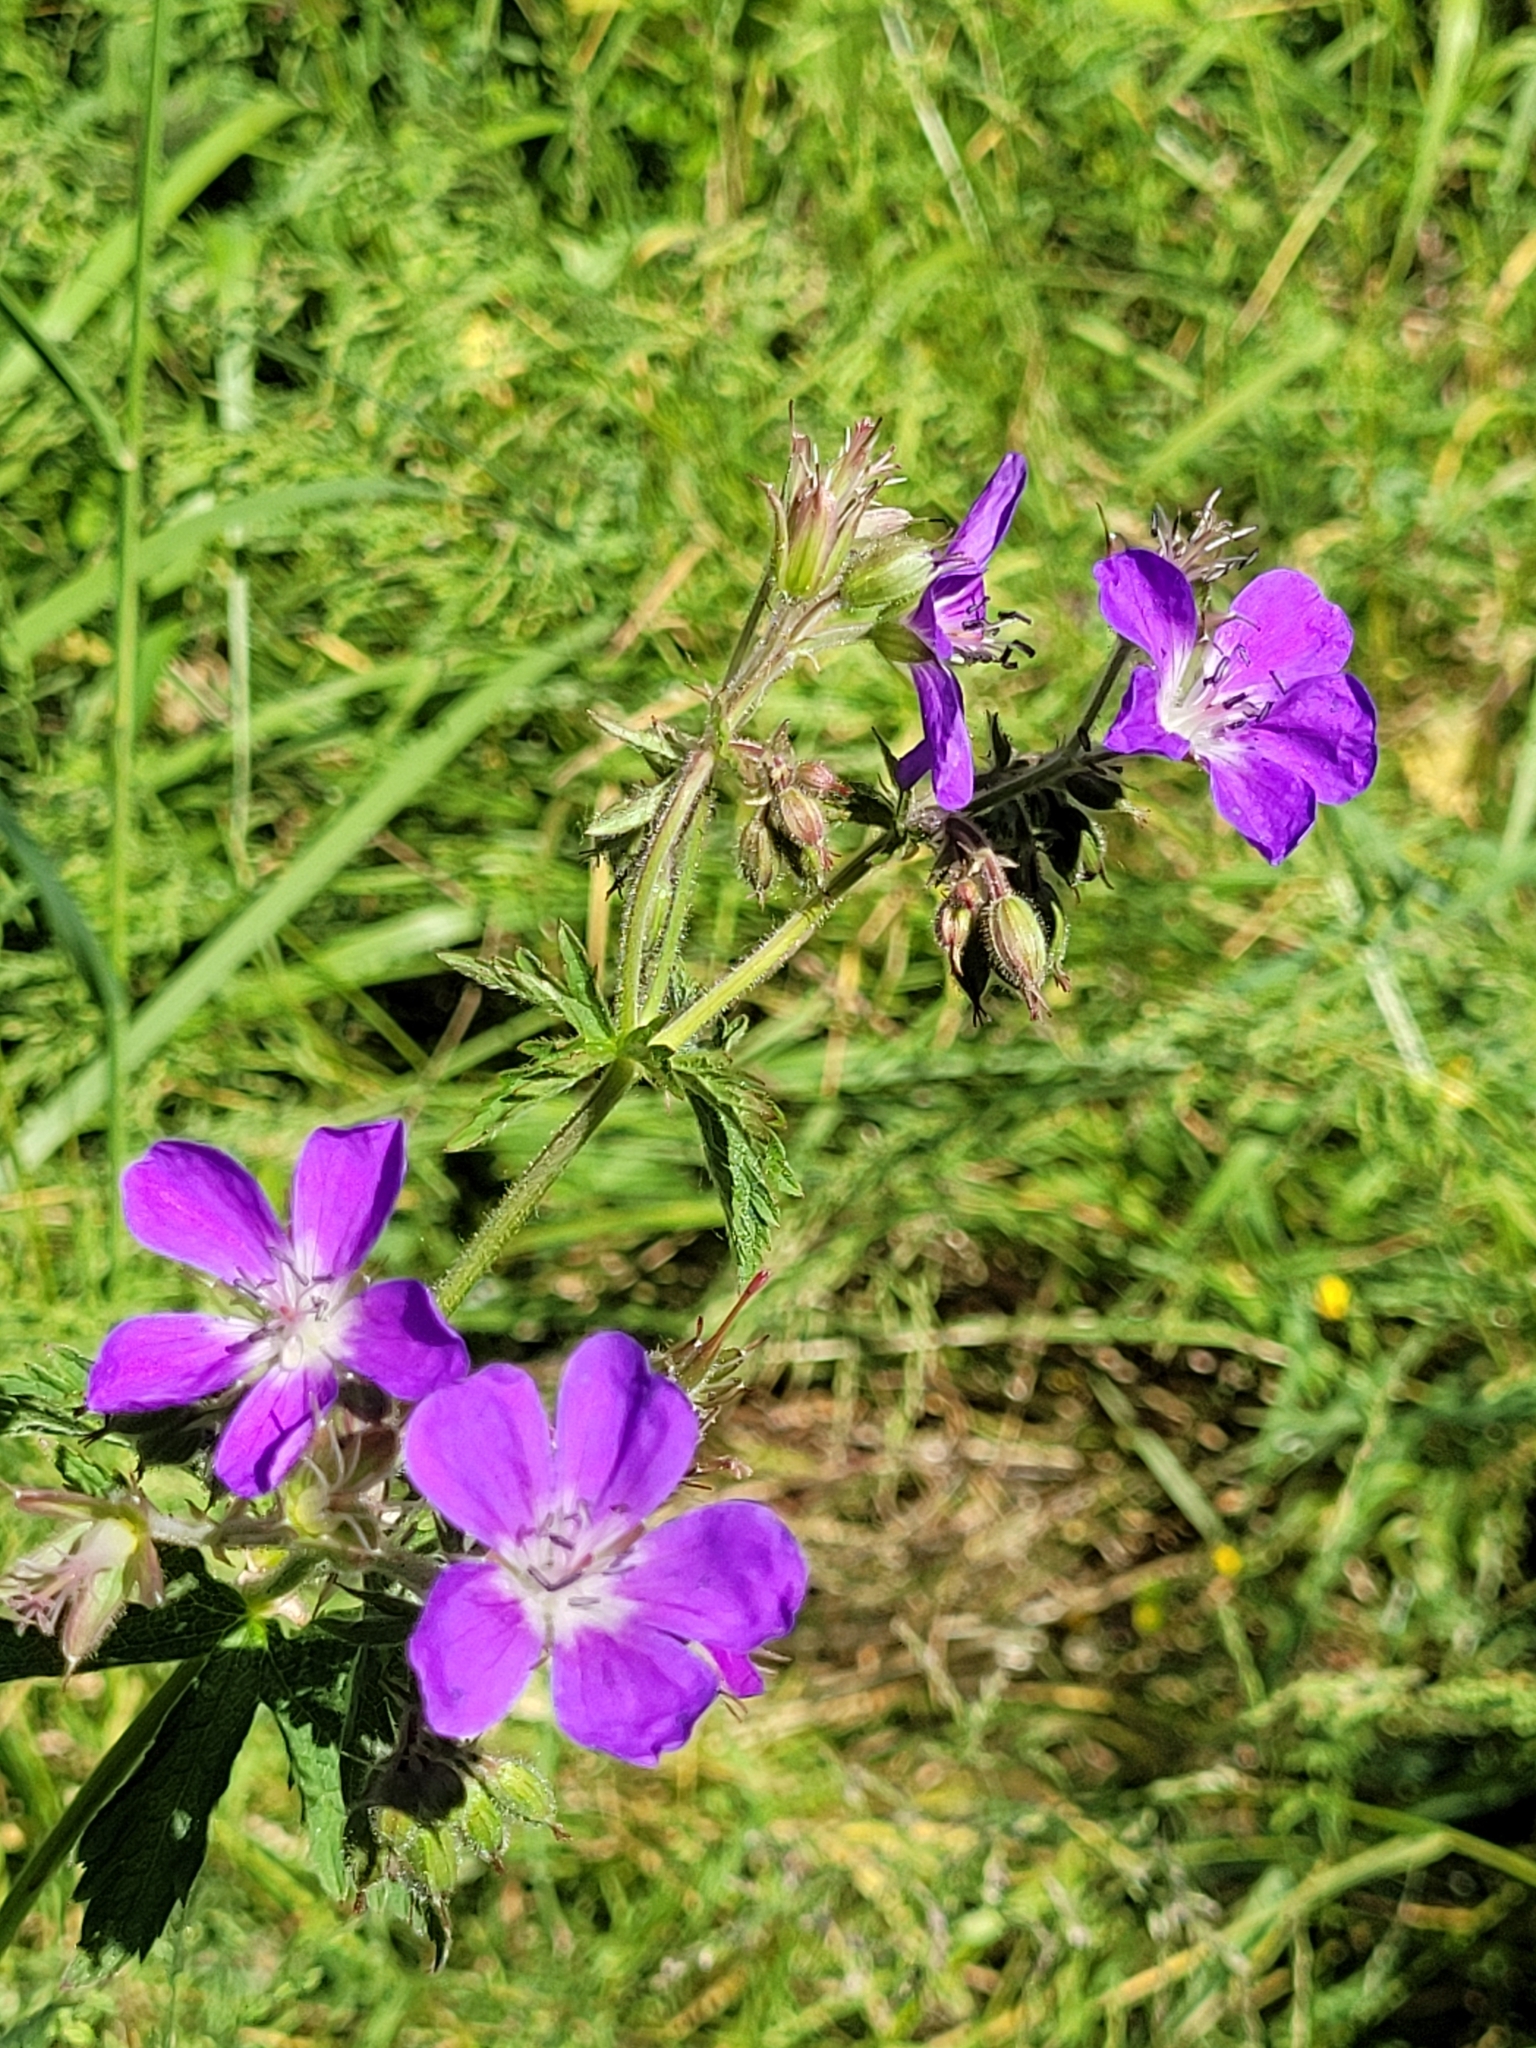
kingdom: Plantae
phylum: Tracheophyta
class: Magnoliopsida
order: Geraniales
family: Geraniaceae
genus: Geranium
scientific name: Geranium sylvaticum
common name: Wood crane's-bill
